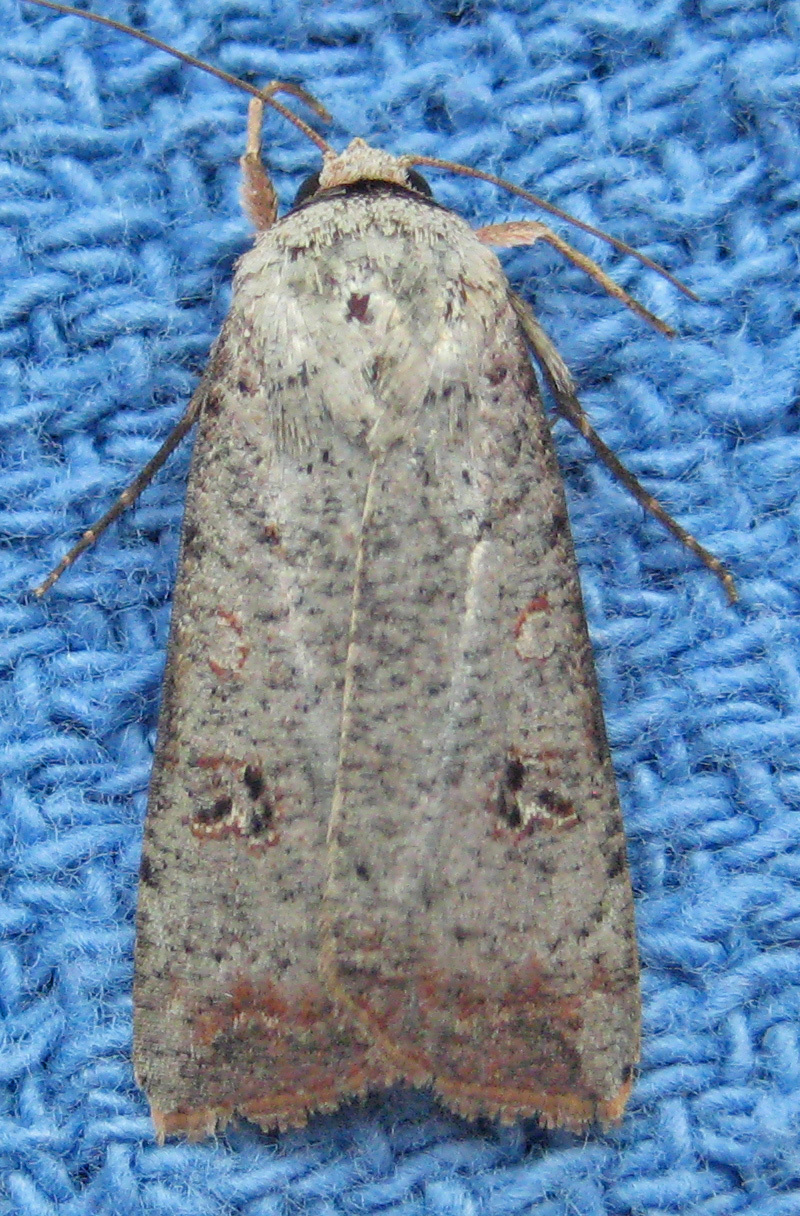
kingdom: Animalia
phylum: Arthropoda
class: Insecta
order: Lepidoptera
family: Noctuidae
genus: Anicla
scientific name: Anicla infecta
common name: Green cutworm
